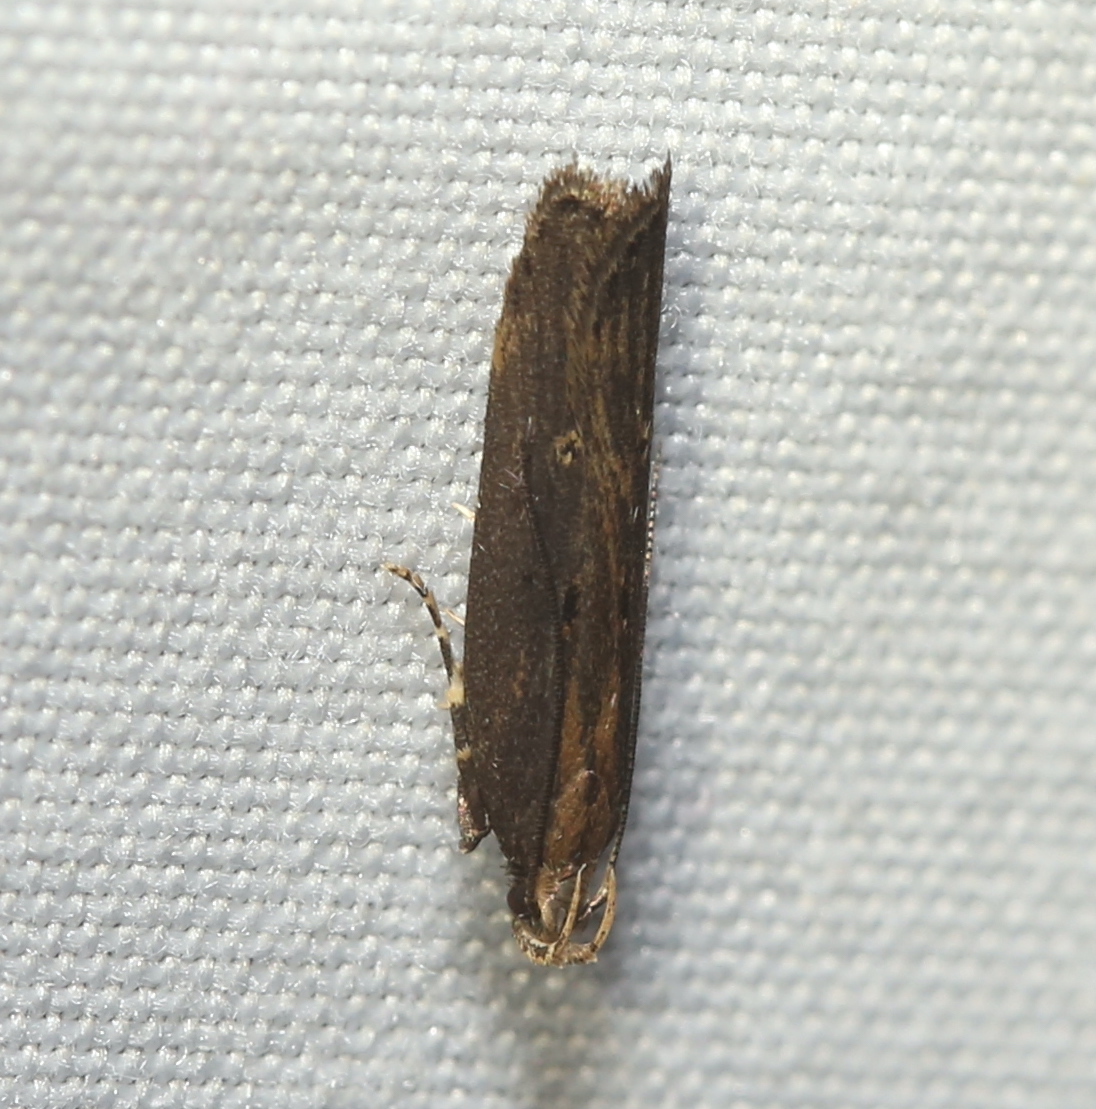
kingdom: Animalia
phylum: Arthropoda
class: Insecta
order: Lepidoptera
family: Gelechiidae
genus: Chionodes
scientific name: Chionodes discoocellella
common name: Eye-ringed chionodes moth
